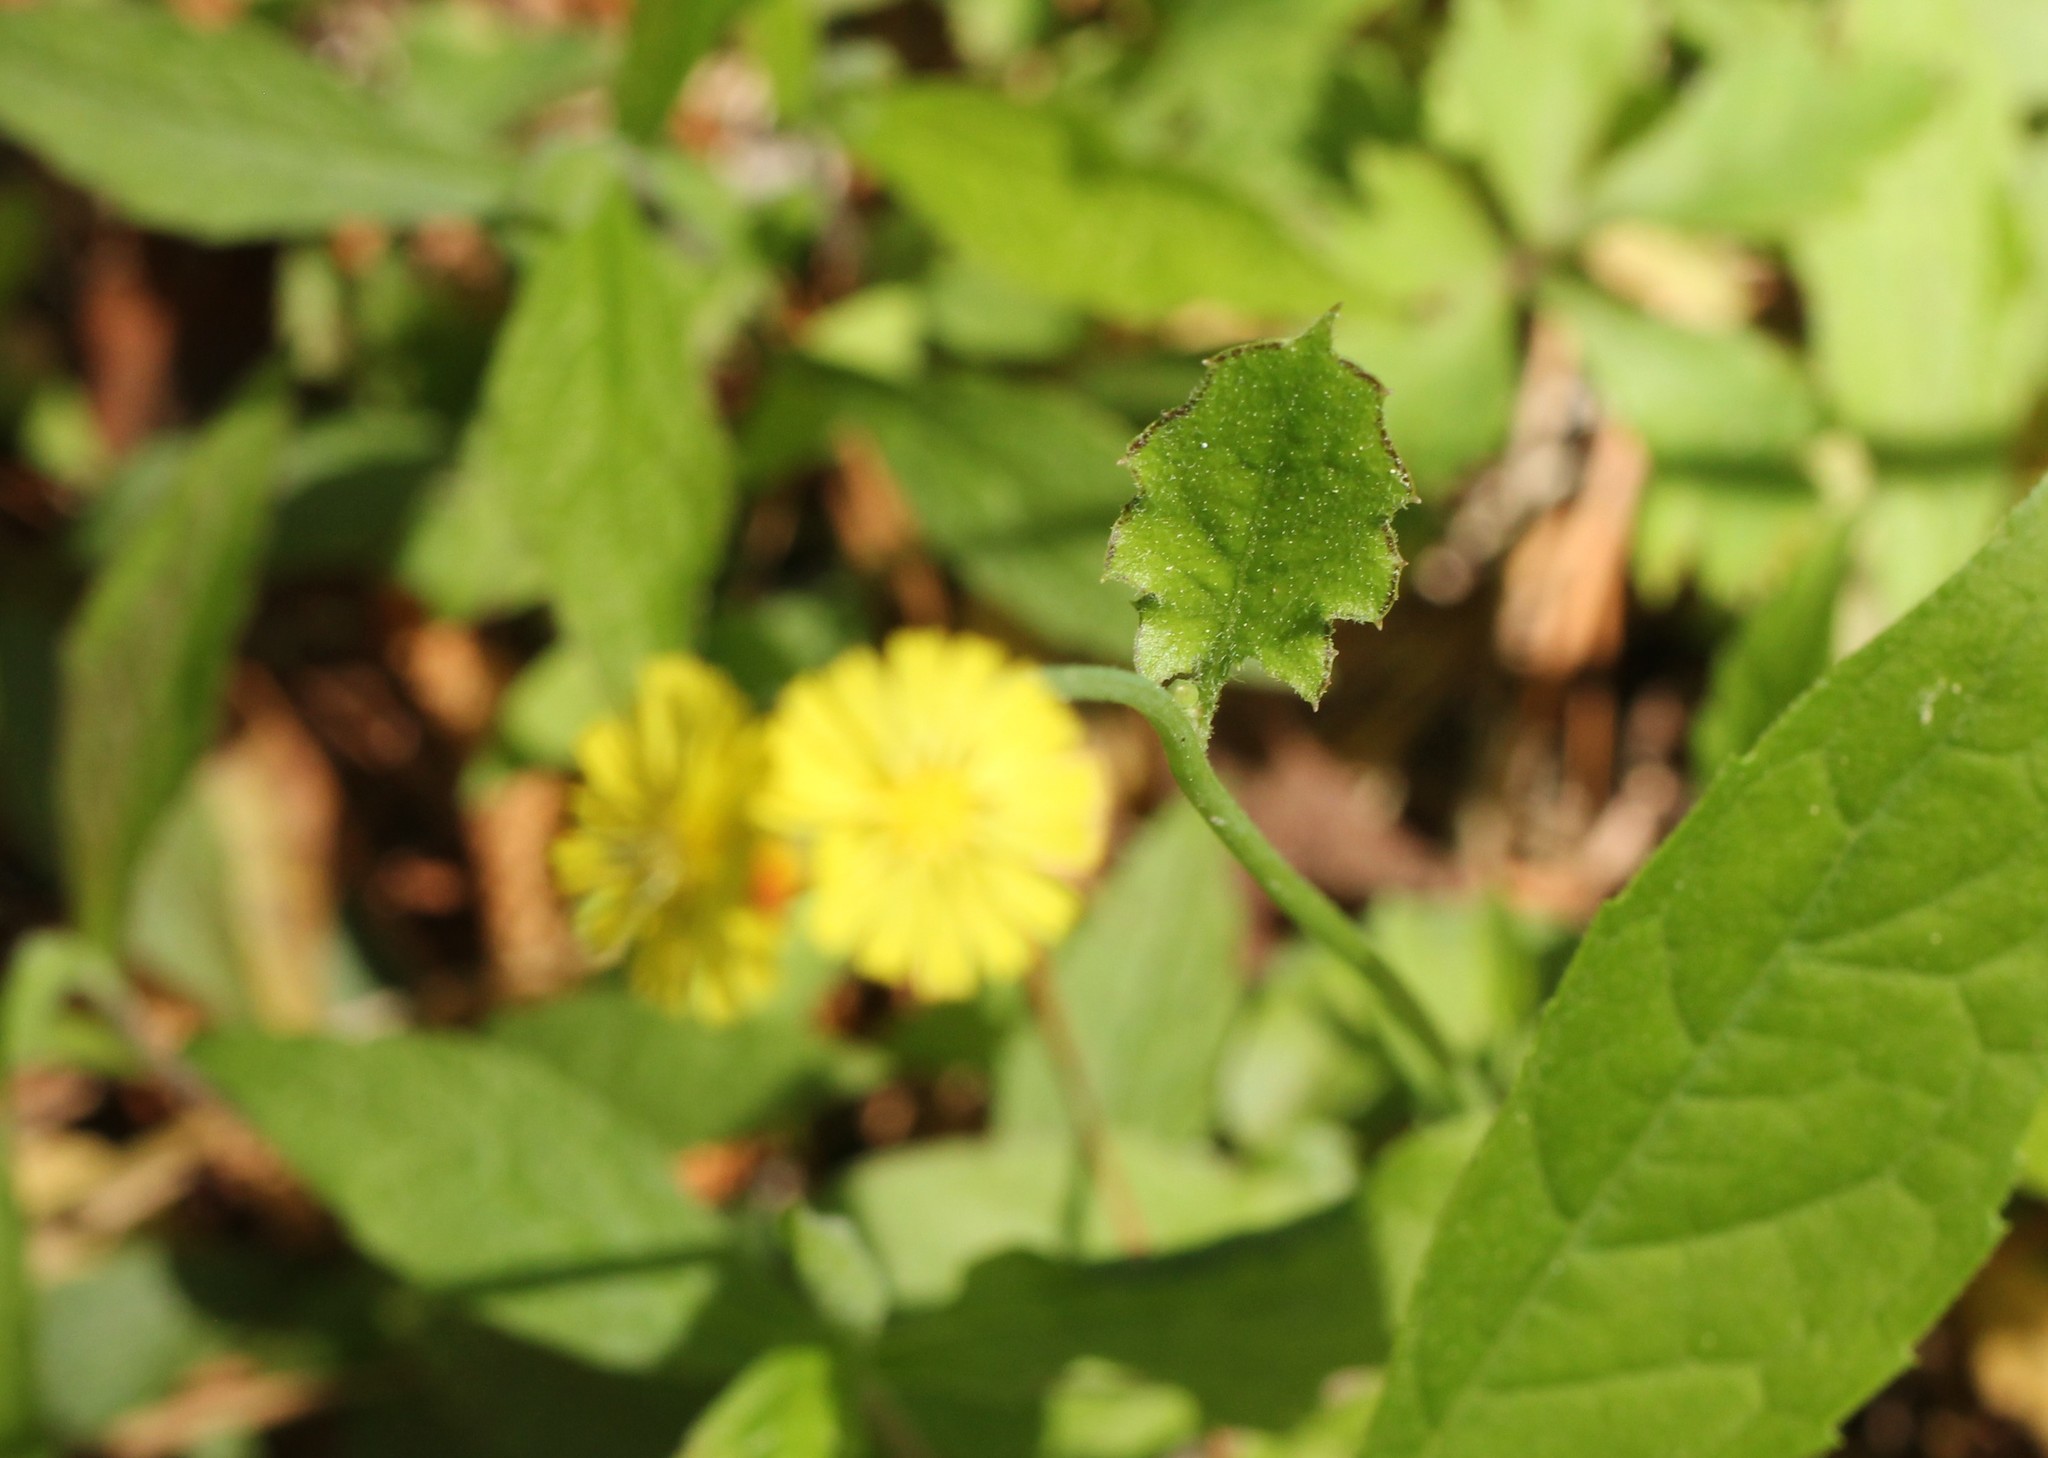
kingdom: Plantae
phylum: Tracheophyta
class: Magnoliopsida
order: Asterales
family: Asteraceae
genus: Youngia
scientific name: Youngia japonica
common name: Oriental false hawksbeard
